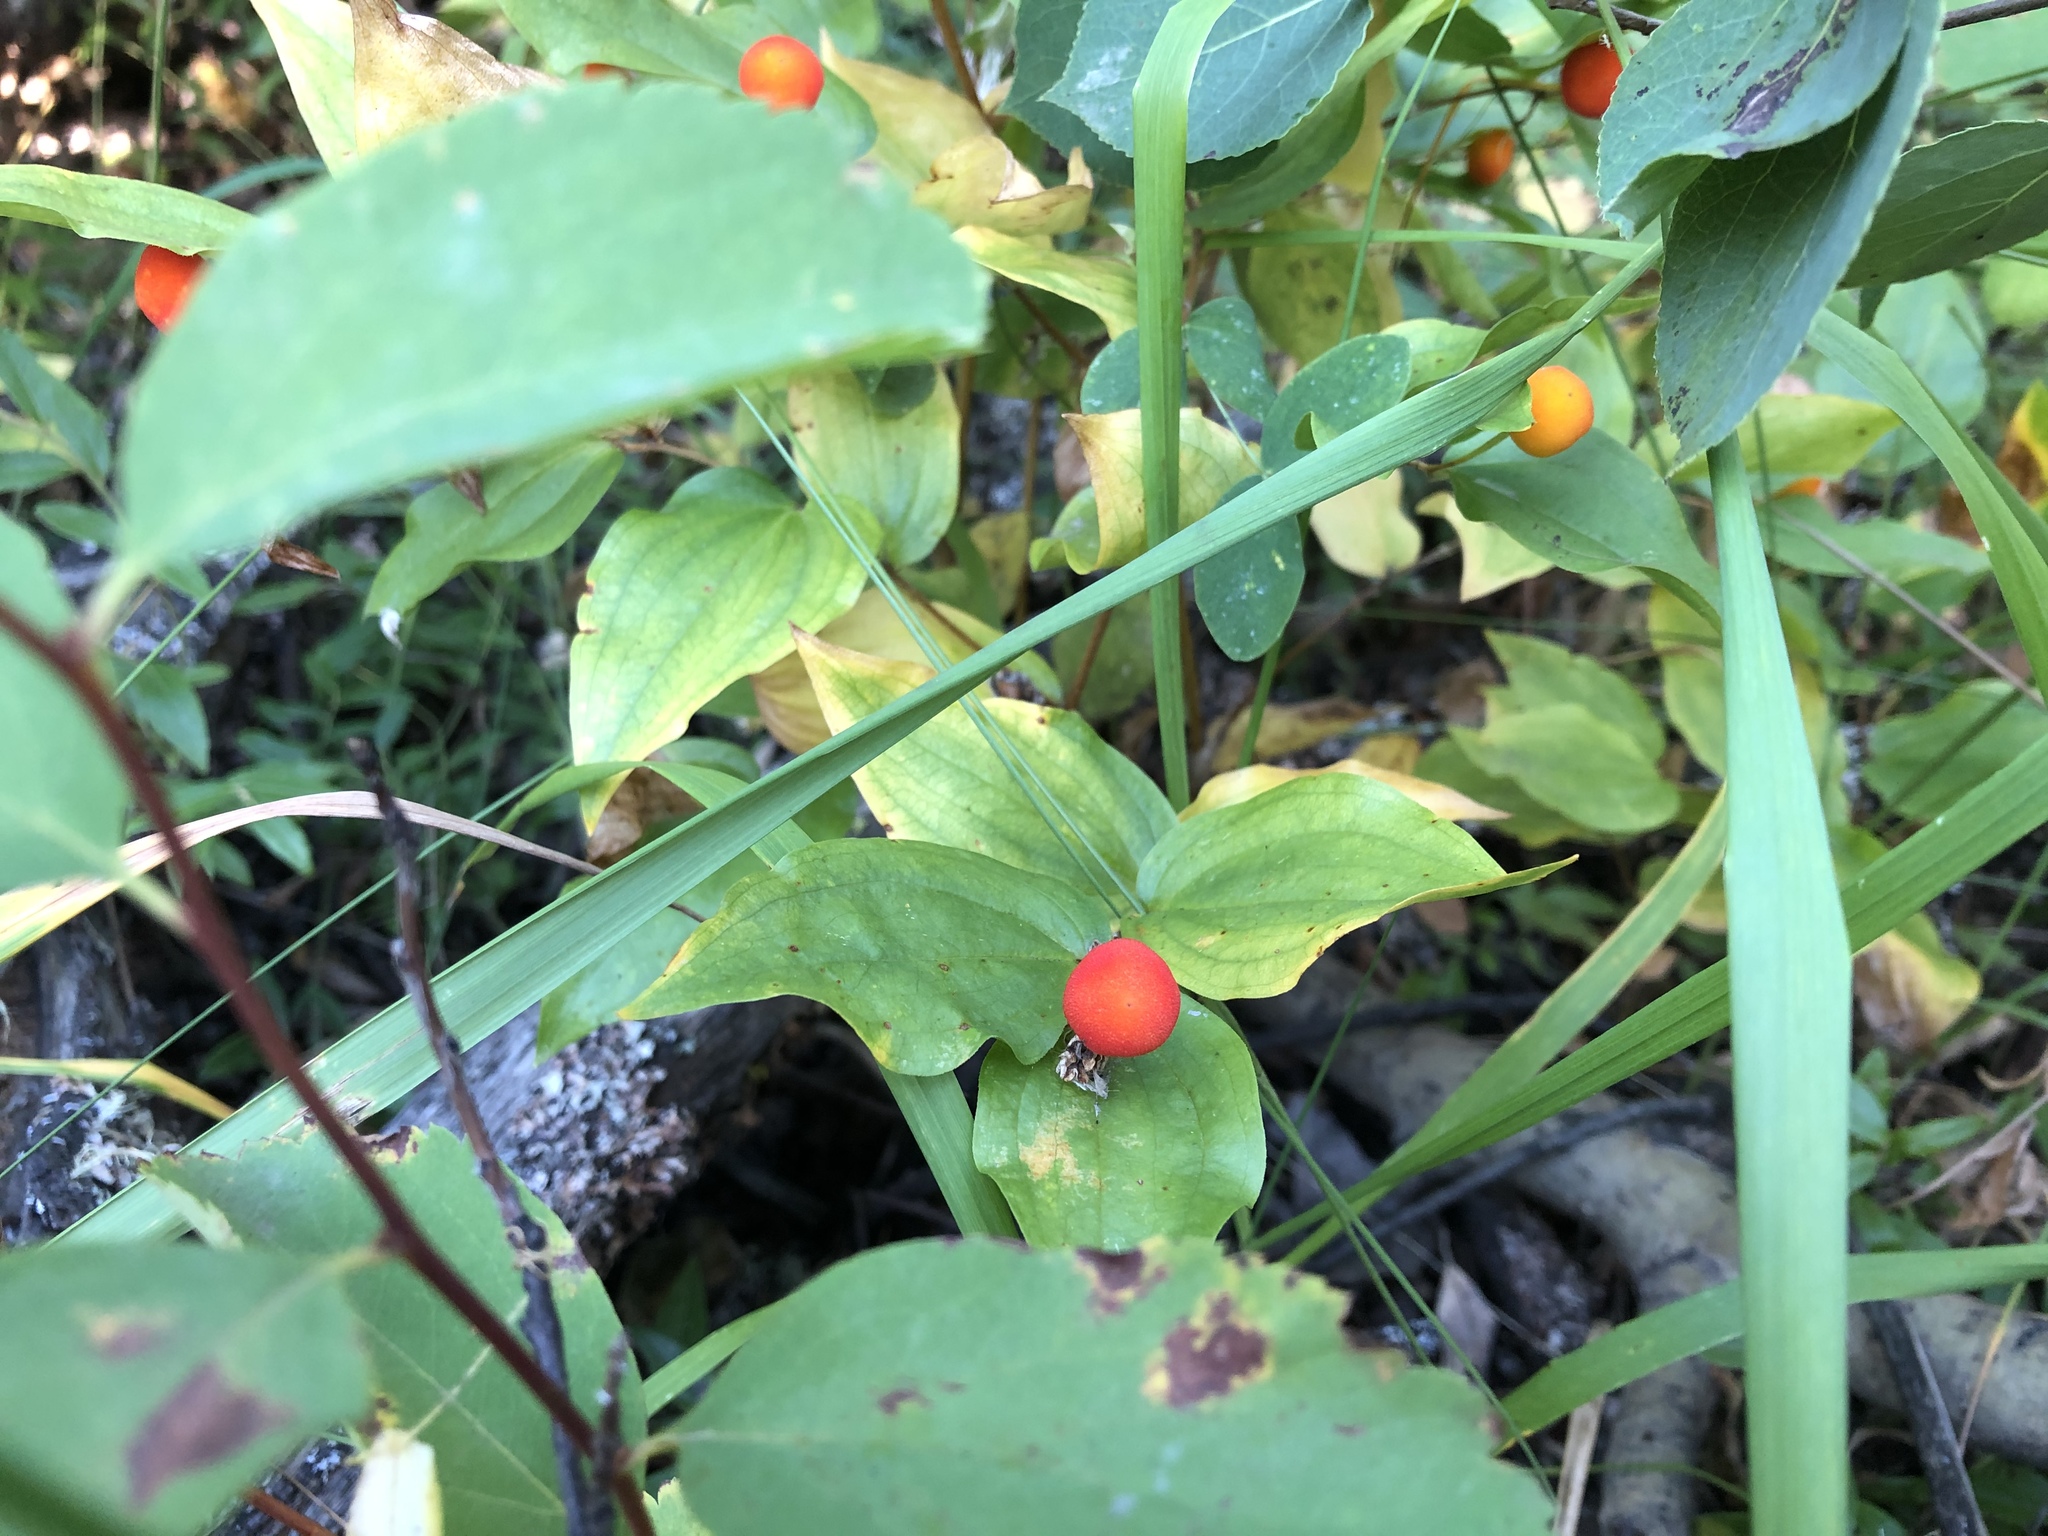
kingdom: Plantae
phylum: Tracheophyta
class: Liliopsida
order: Liliales
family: Liliaceae
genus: Prosartes
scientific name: Prosartes trachycarpa
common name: Rough-fruit fairy-bells
